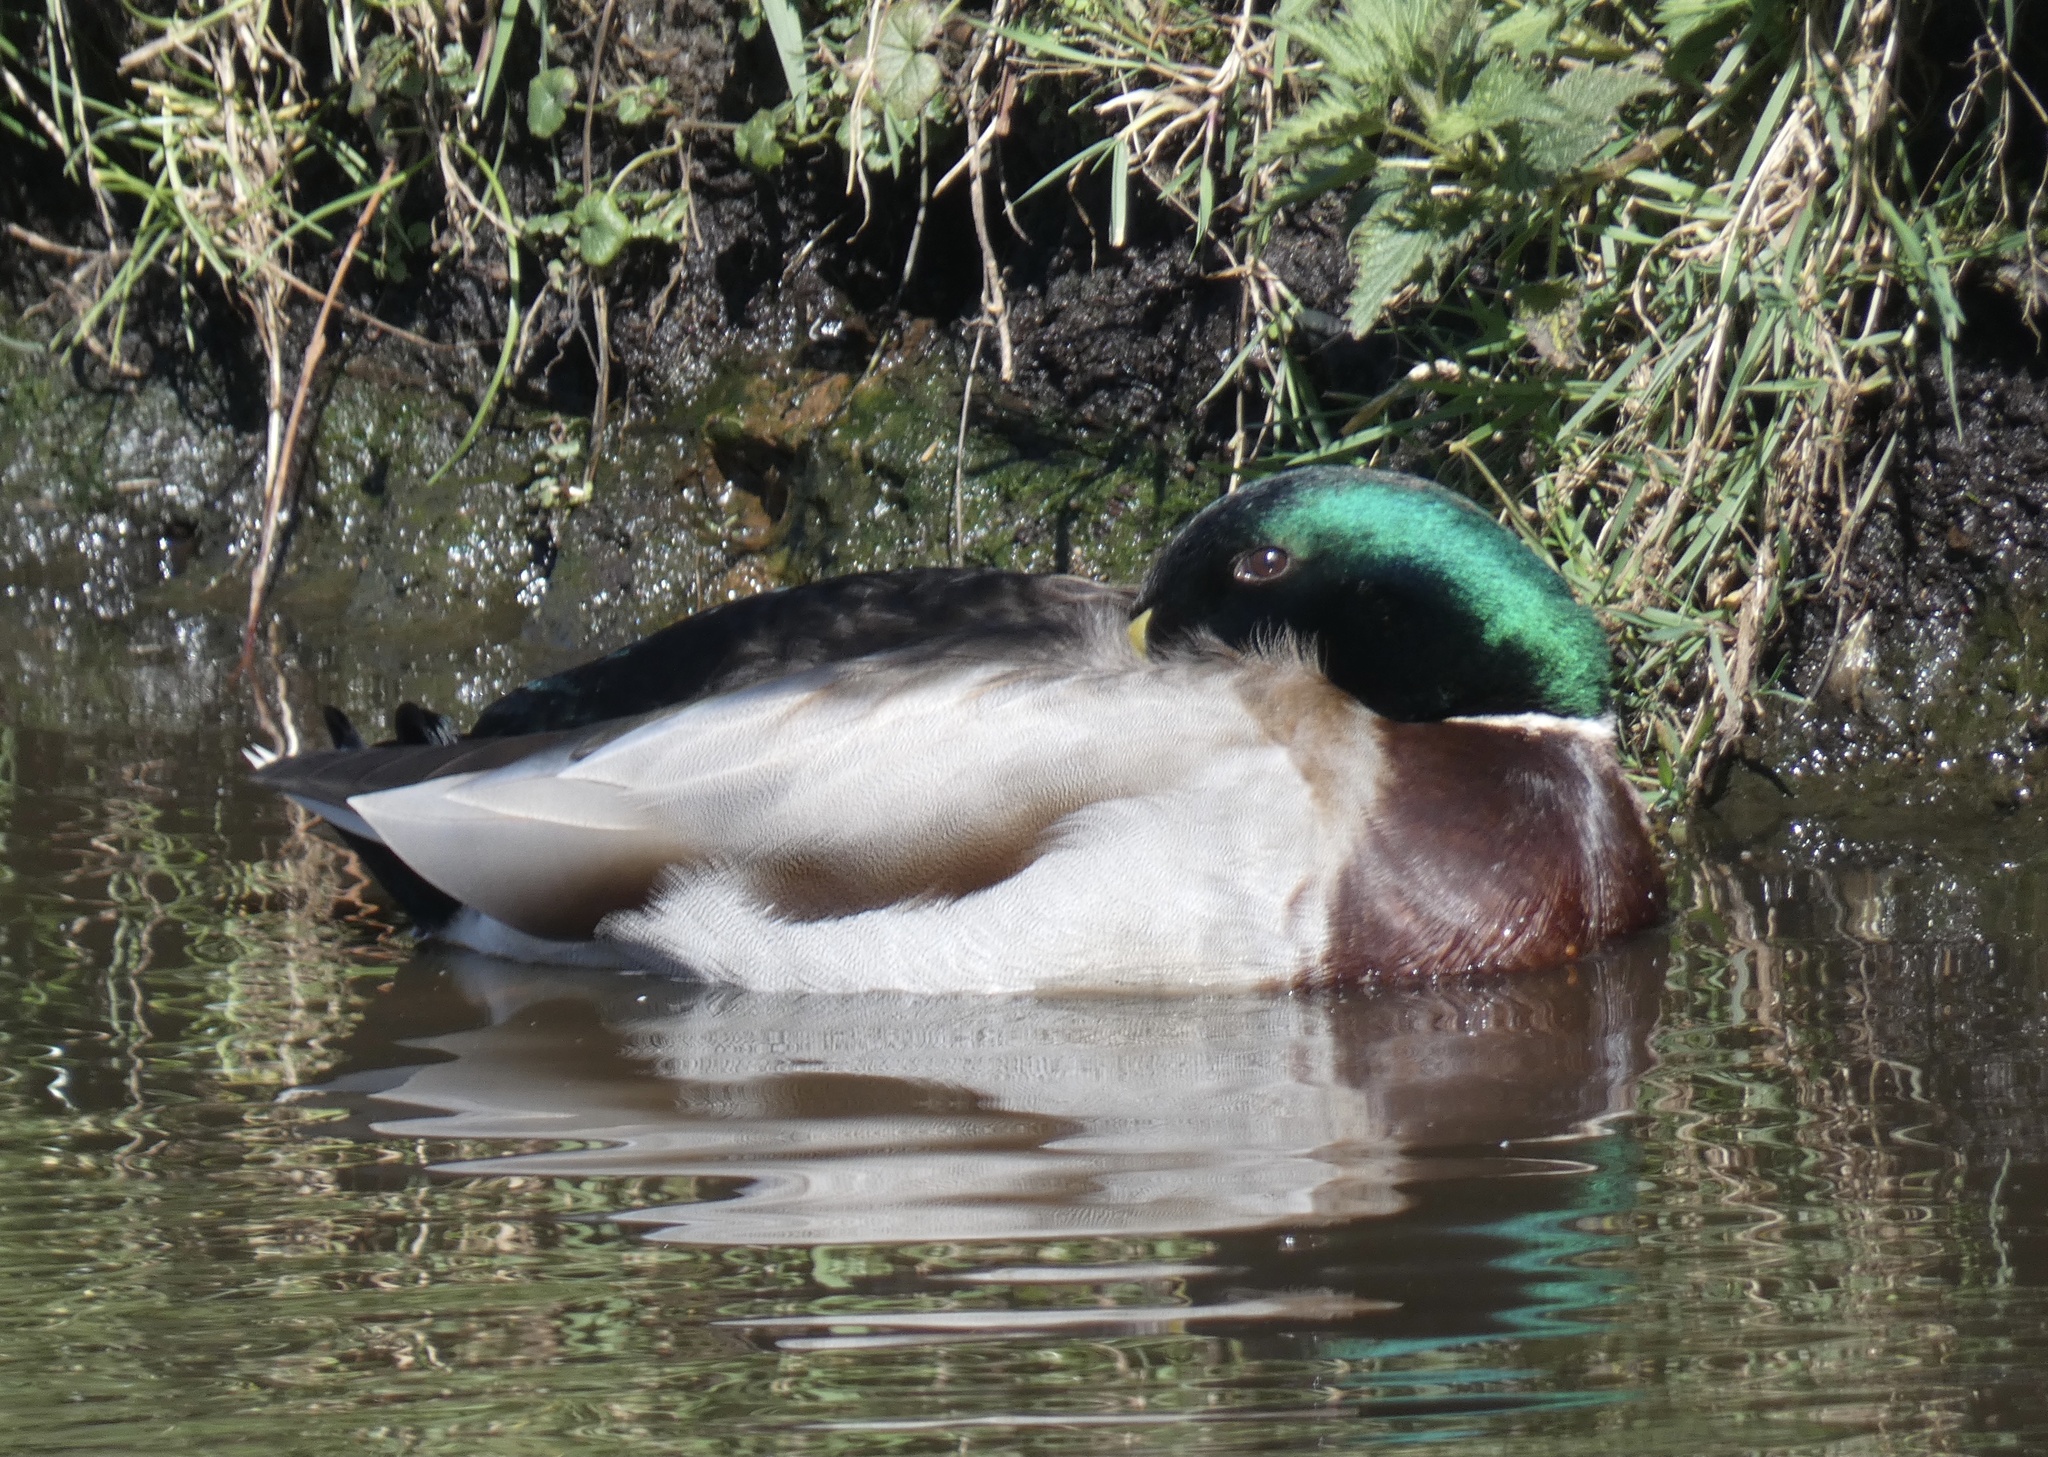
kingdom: Animalia
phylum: Chordata
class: Aves
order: Anseriformes
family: Anatidae
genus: Anas
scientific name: Anas platyrhynchos
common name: Mallard
